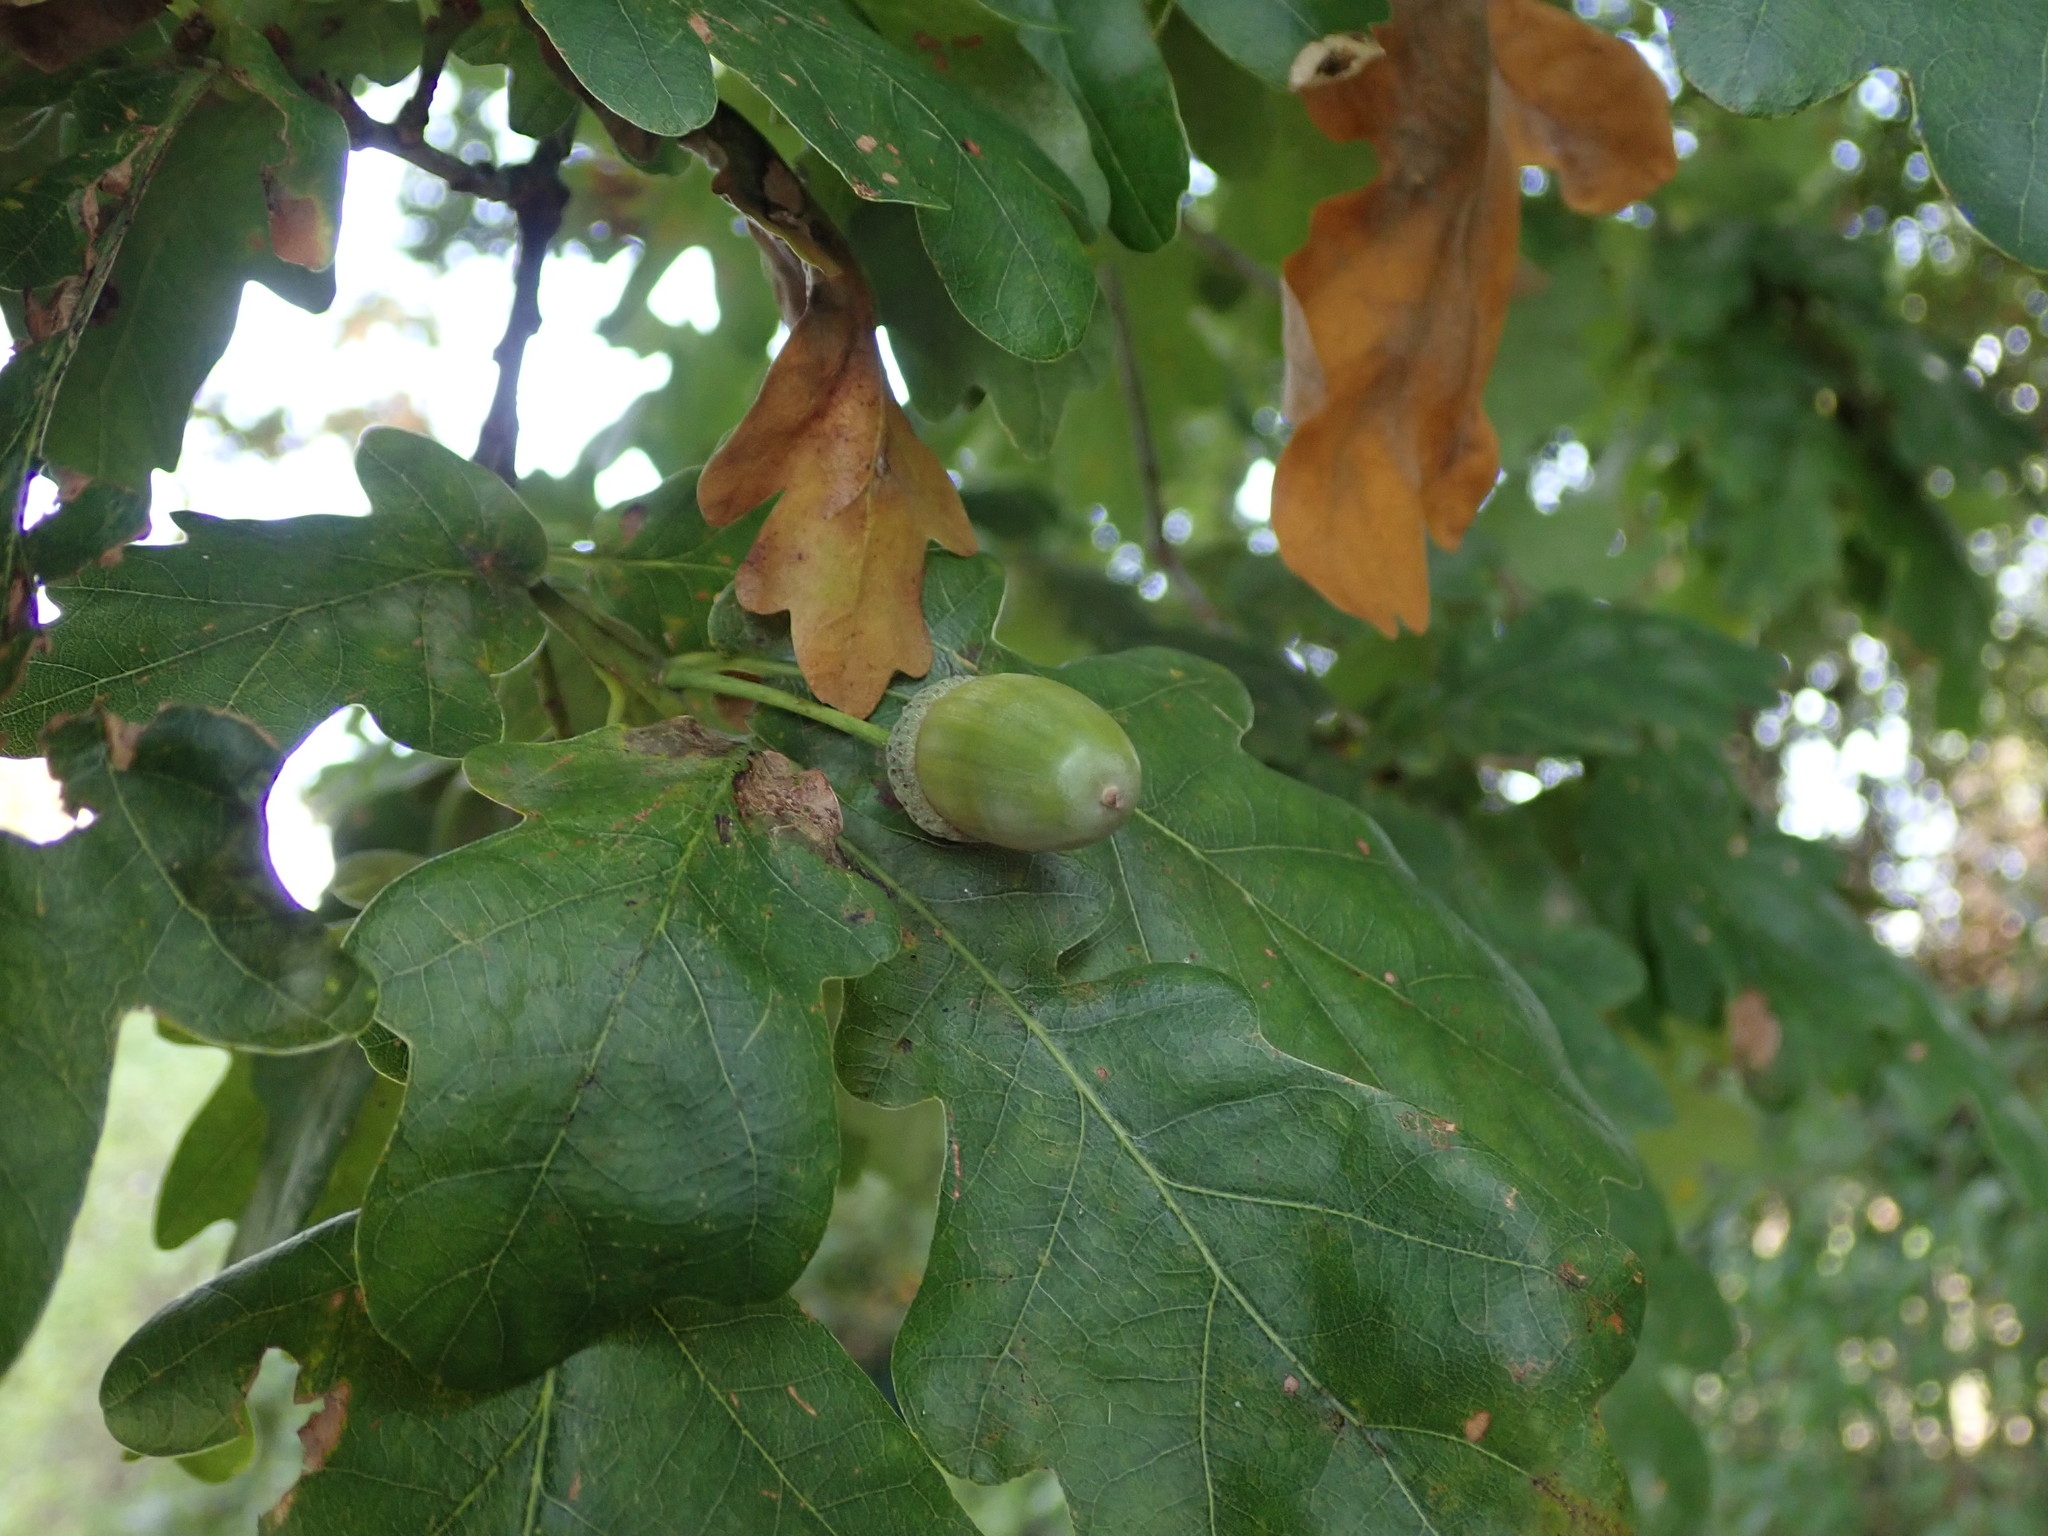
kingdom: Plantae
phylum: Tracheophyta
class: Magnoliopsida
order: Fagales
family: Fagaceae
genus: Quercus
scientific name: Quercus robur
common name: Pedunculate oak
